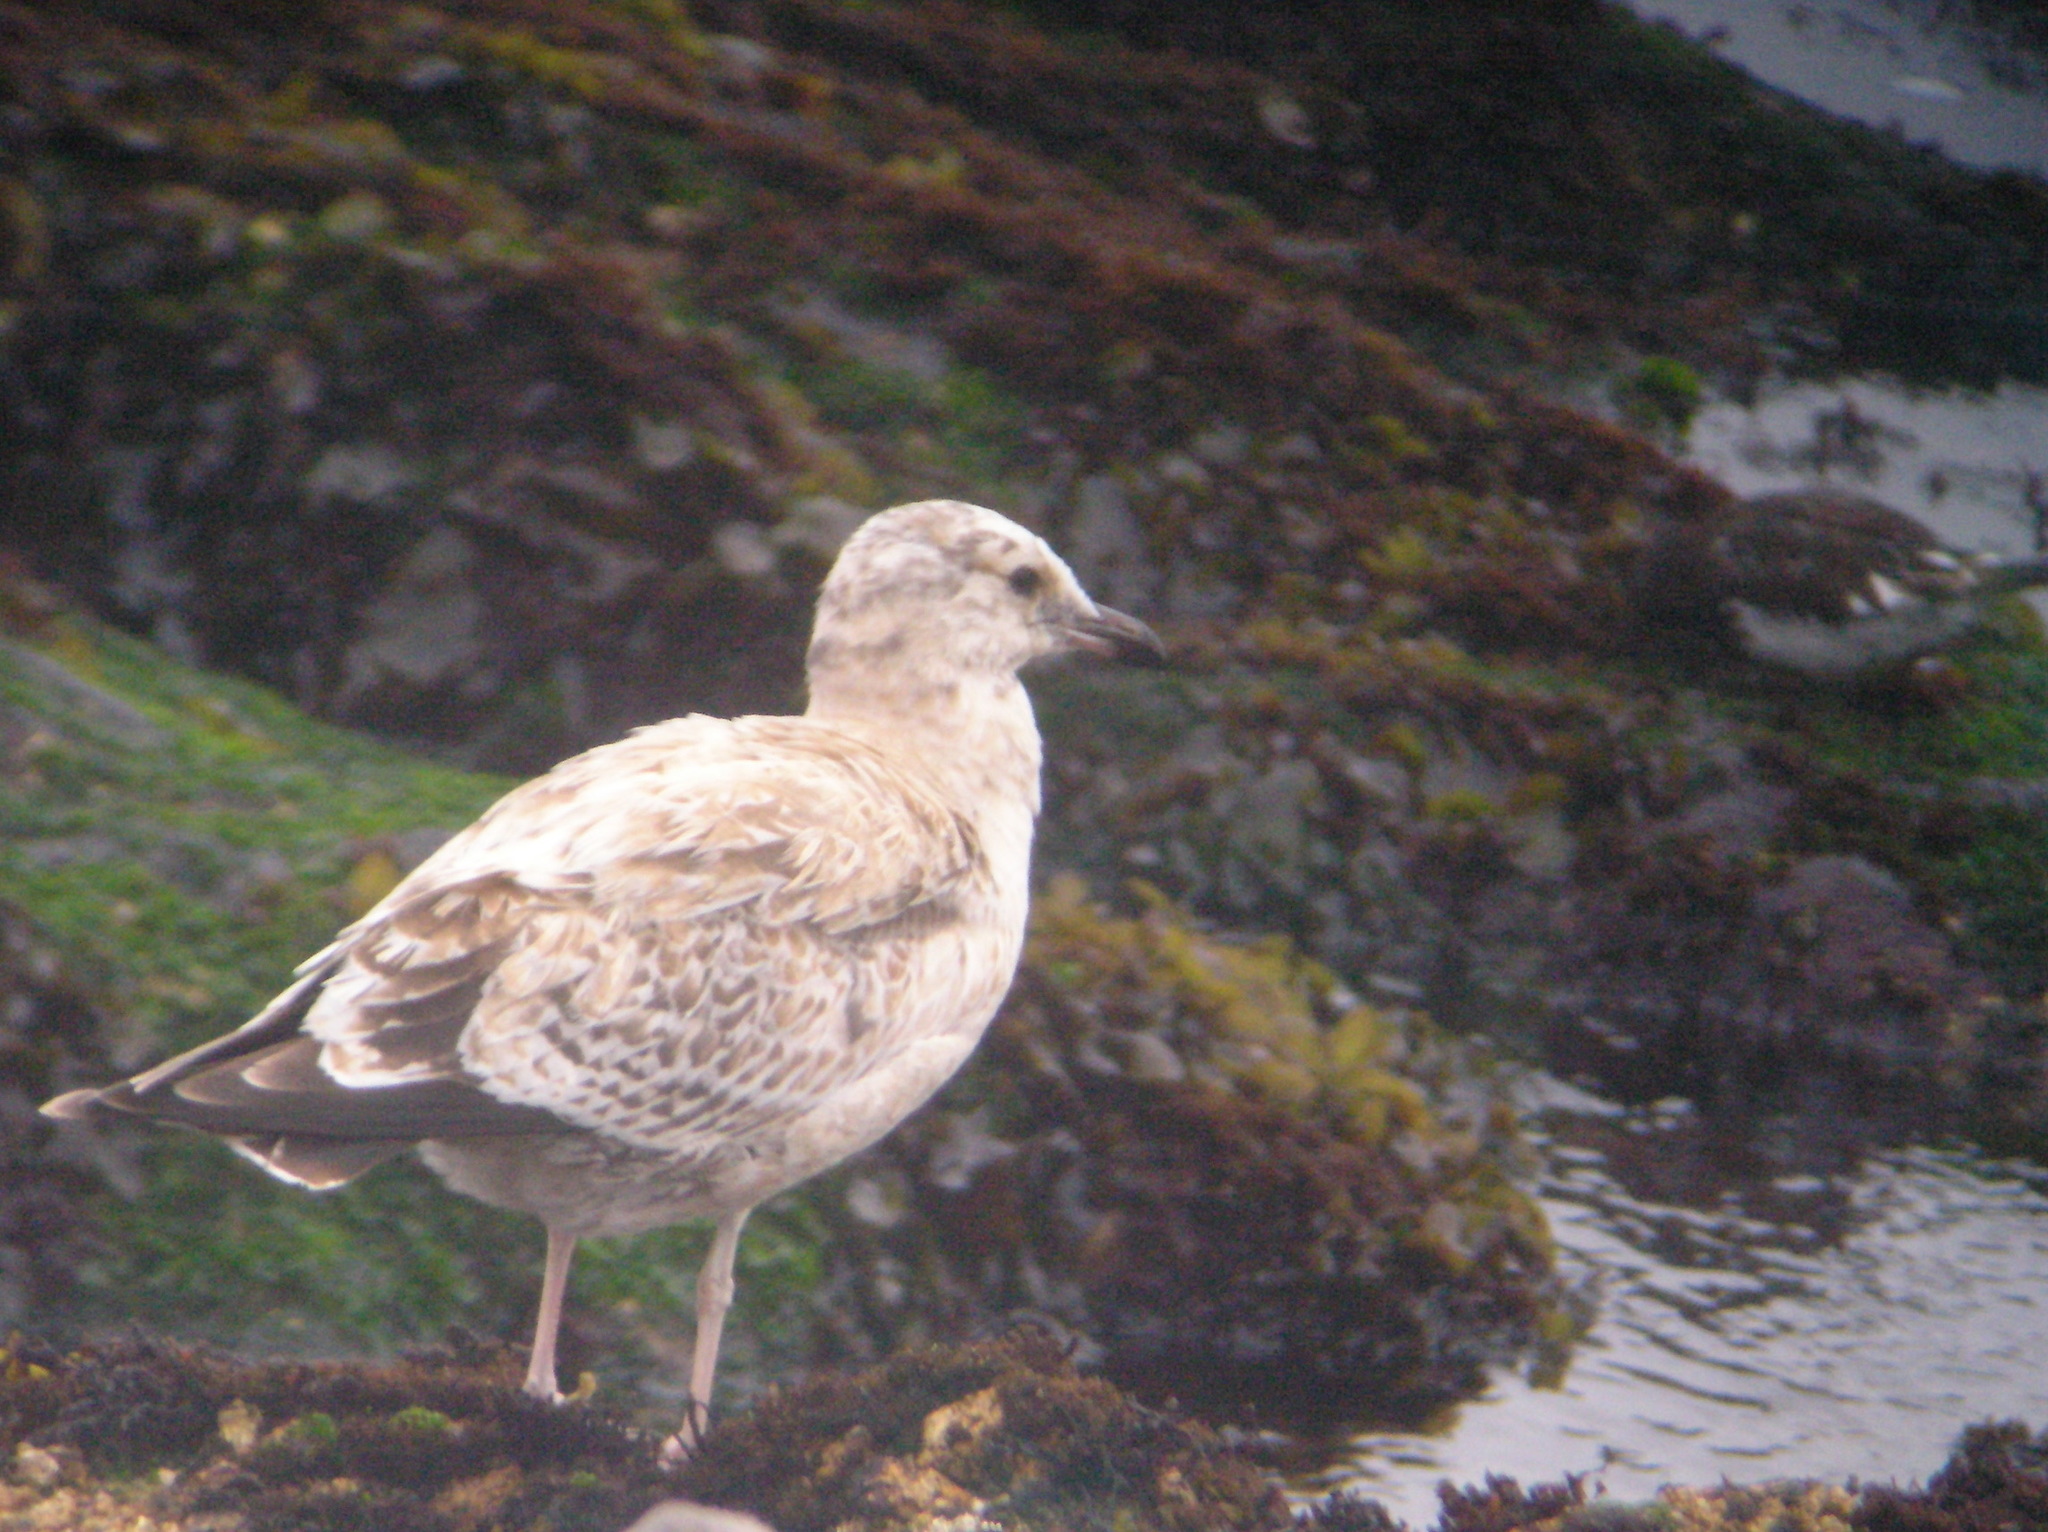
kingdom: Animalia
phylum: Chordata
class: Aves
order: Charadriiformes
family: Laridae
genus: Larus
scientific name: Larus californicus
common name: California gull
